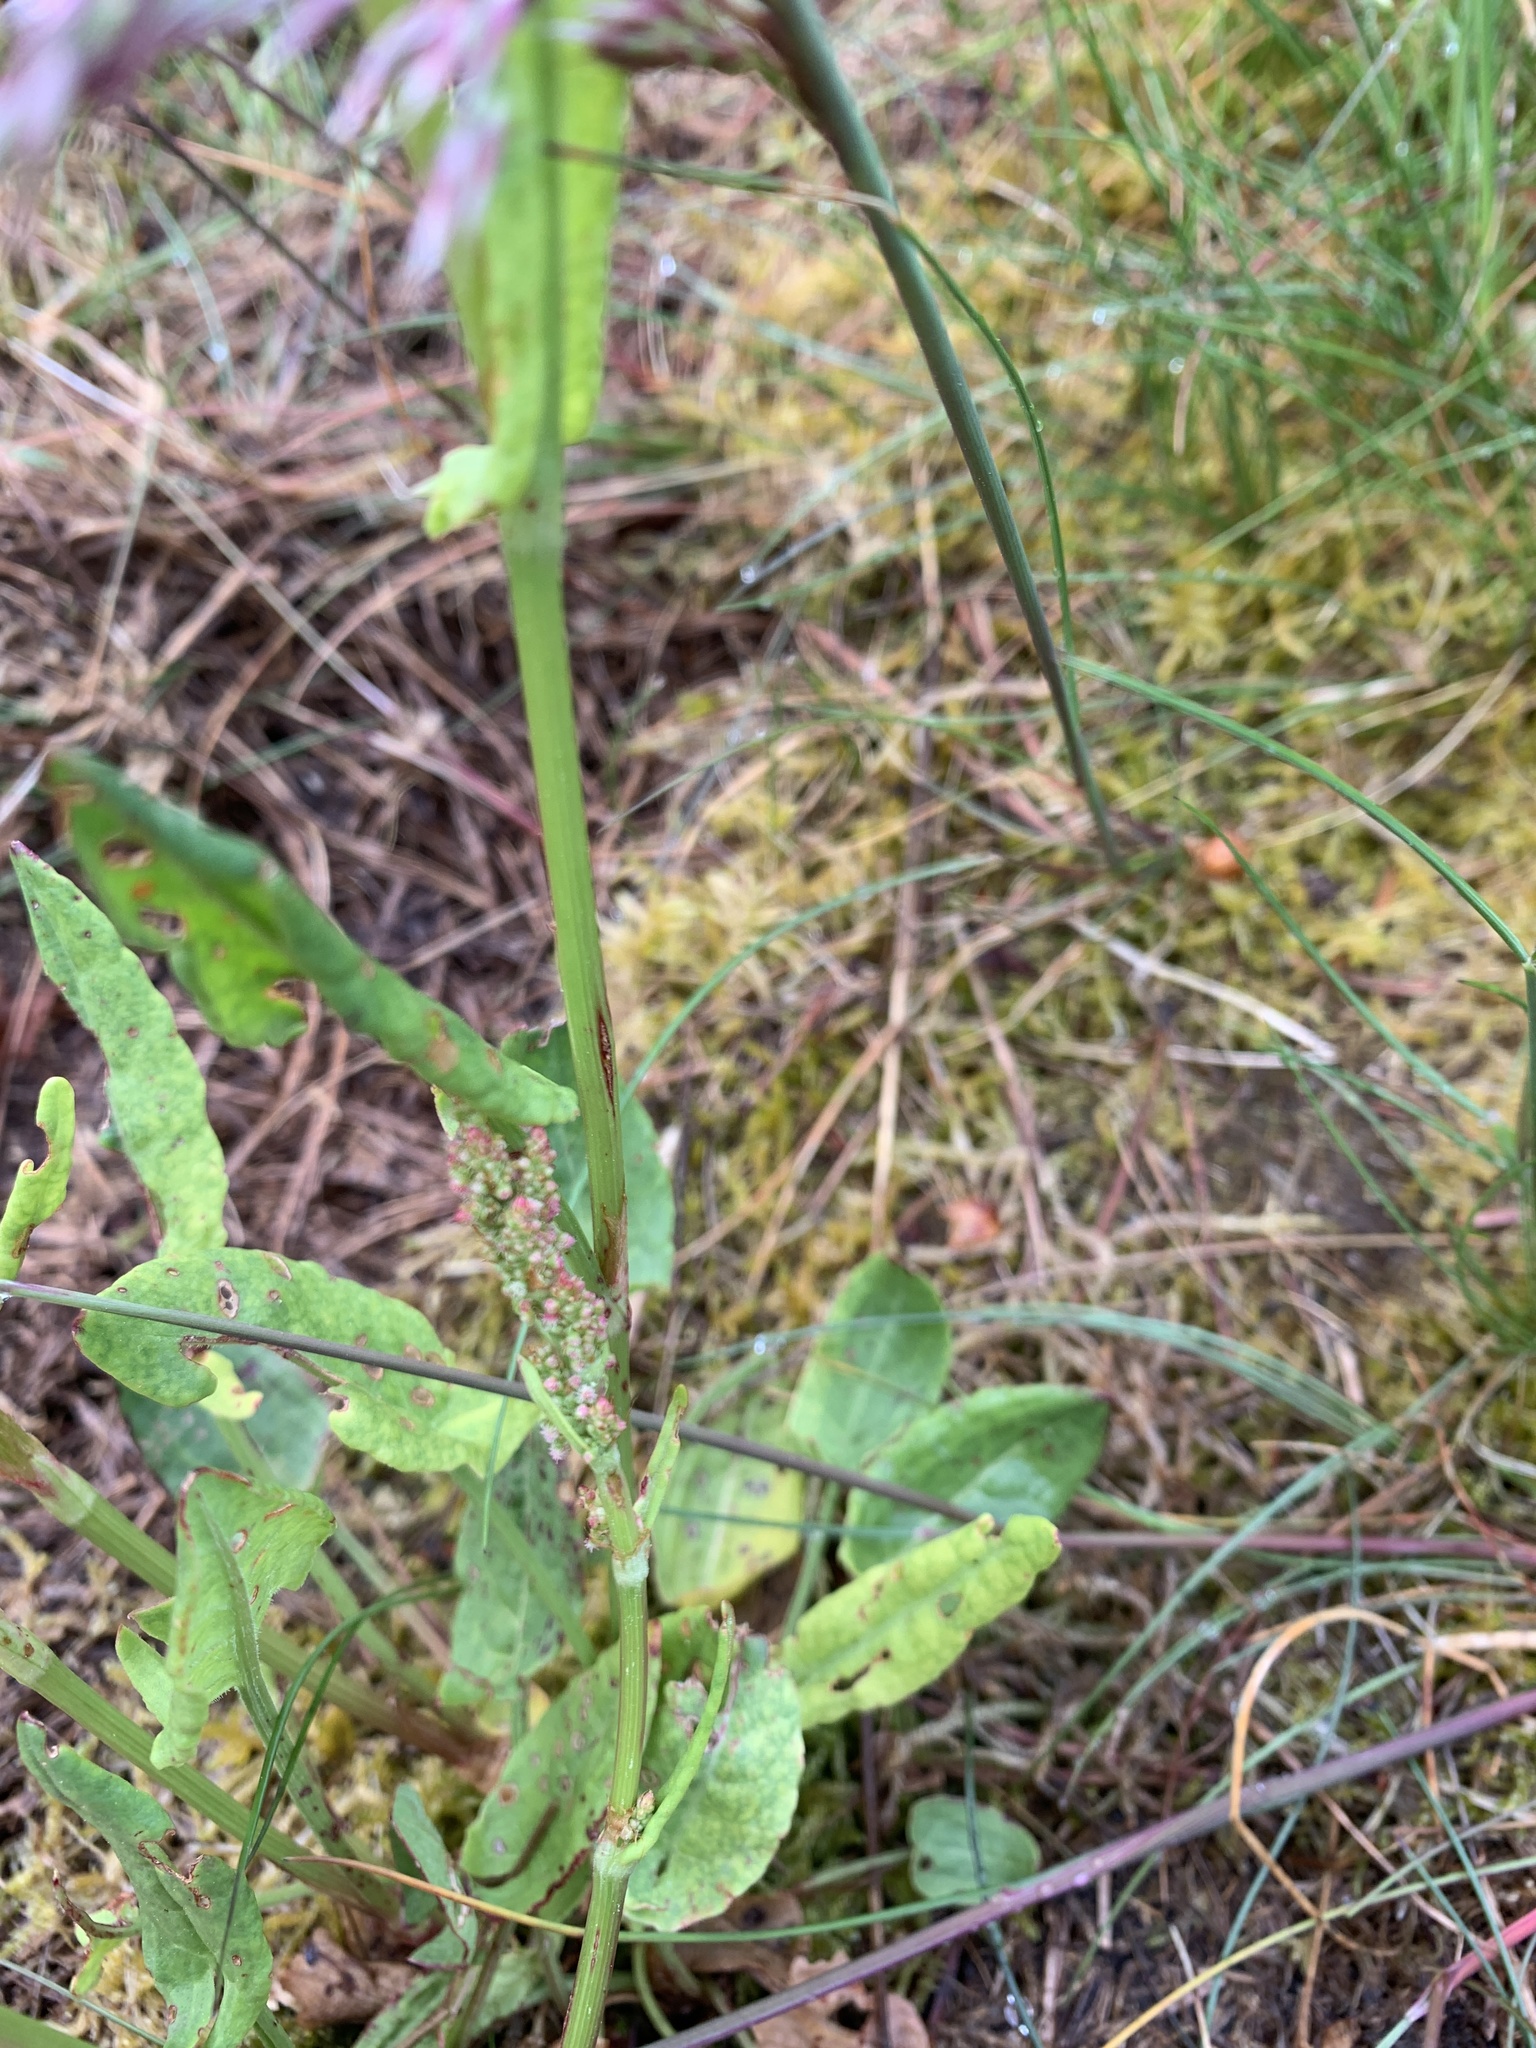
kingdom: Plantae
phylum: Tracheophyta
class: Magnoliopsida
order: Caryophyllales
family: Polygonaceae
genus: Rumex
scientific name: Rumex acetosa
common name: Garden sorrel
